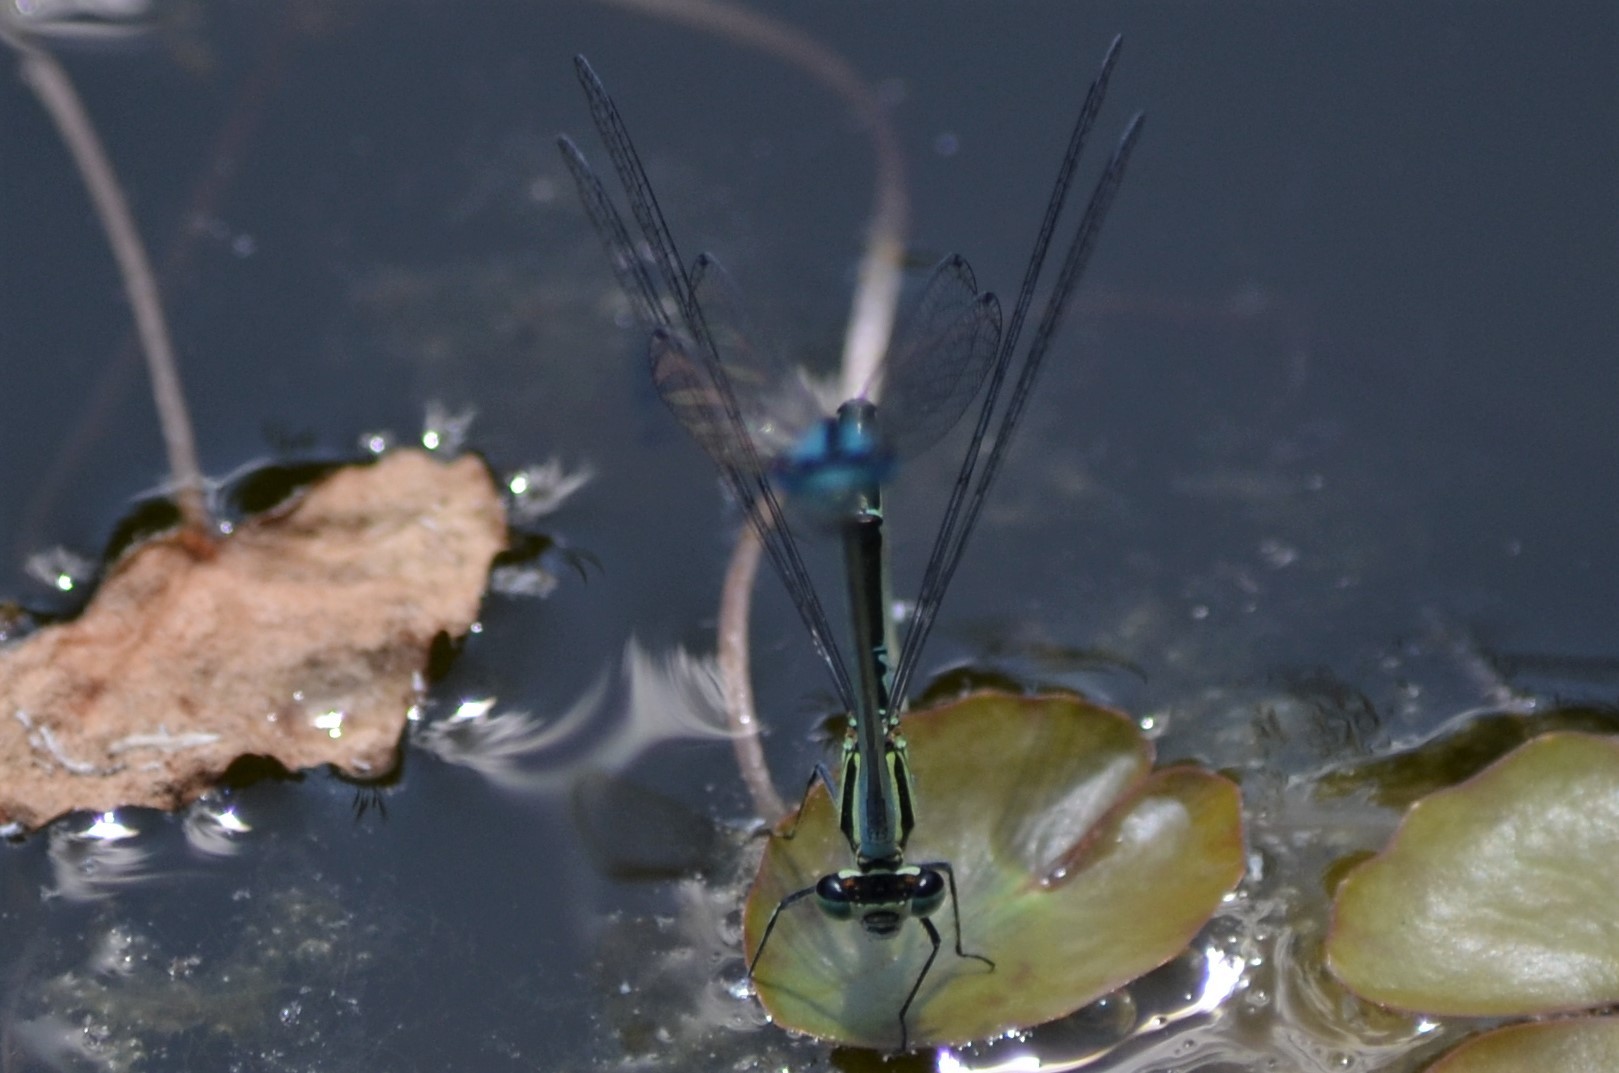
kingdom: Animalia
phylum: Arthropoda
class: Insecta
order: Odonata
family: Coenagrionidae
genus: Coenagrion
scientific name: Coenagrion puella
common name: Azure damselfly
